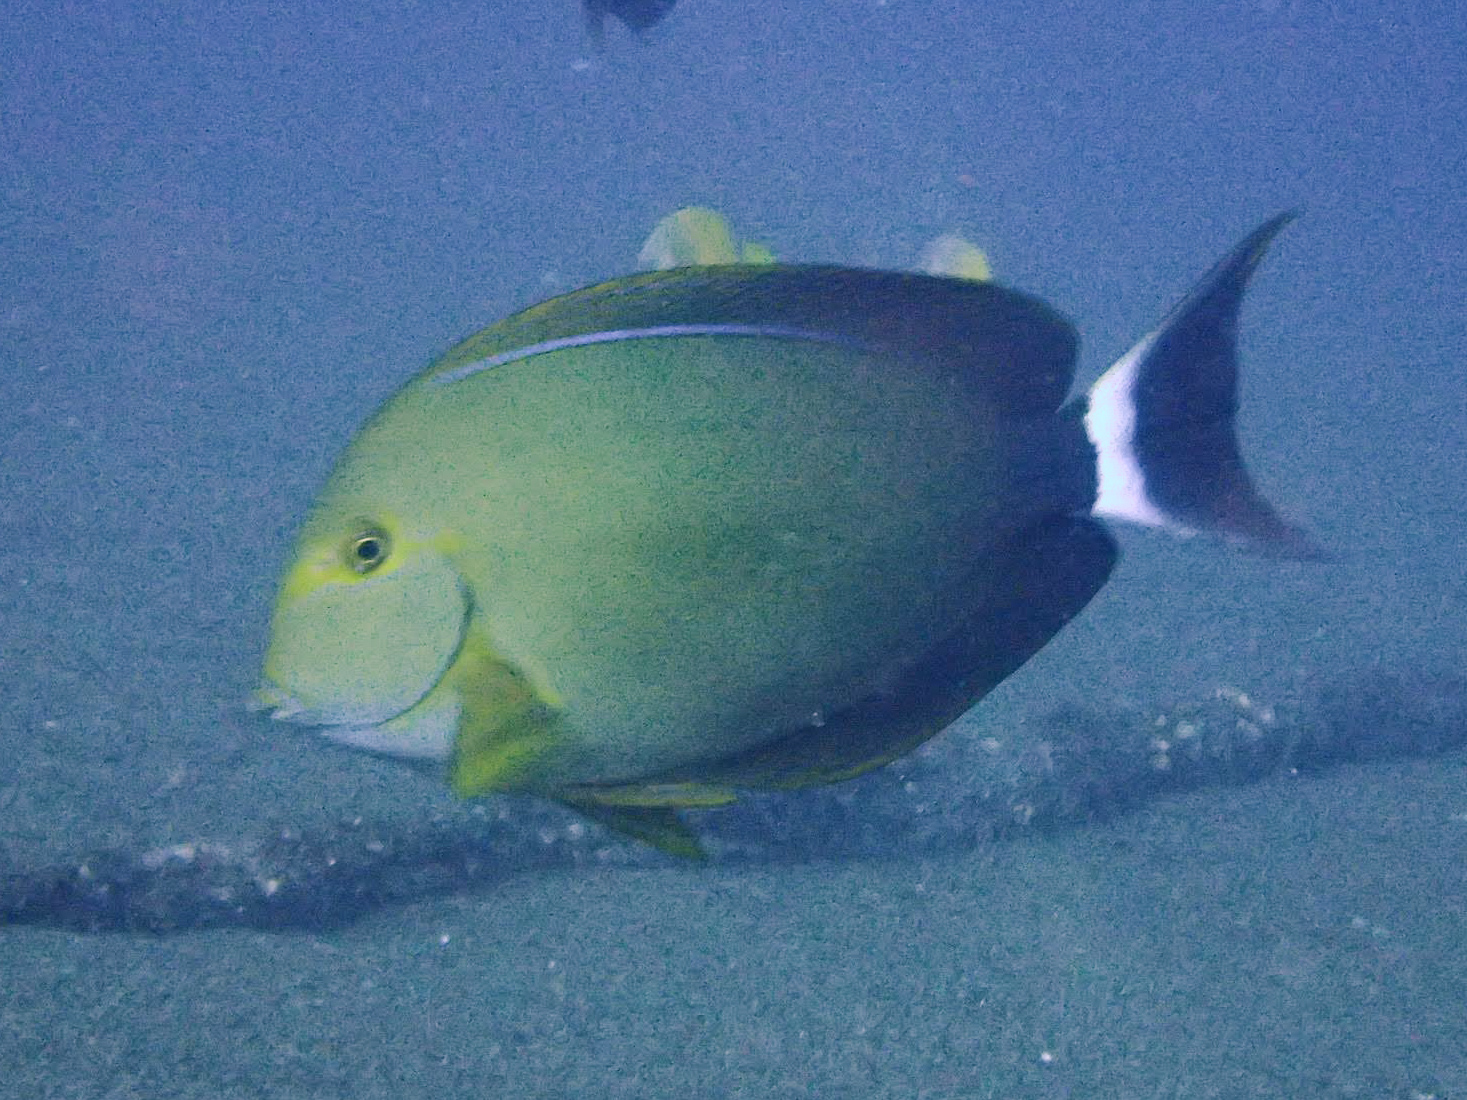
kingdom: Animalia
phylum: Chordata
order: Perciformes
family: Acanthuridae
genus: Acanthurus
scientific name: Acanthurus xanthopterus
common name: Cuvier's surgeonfish
